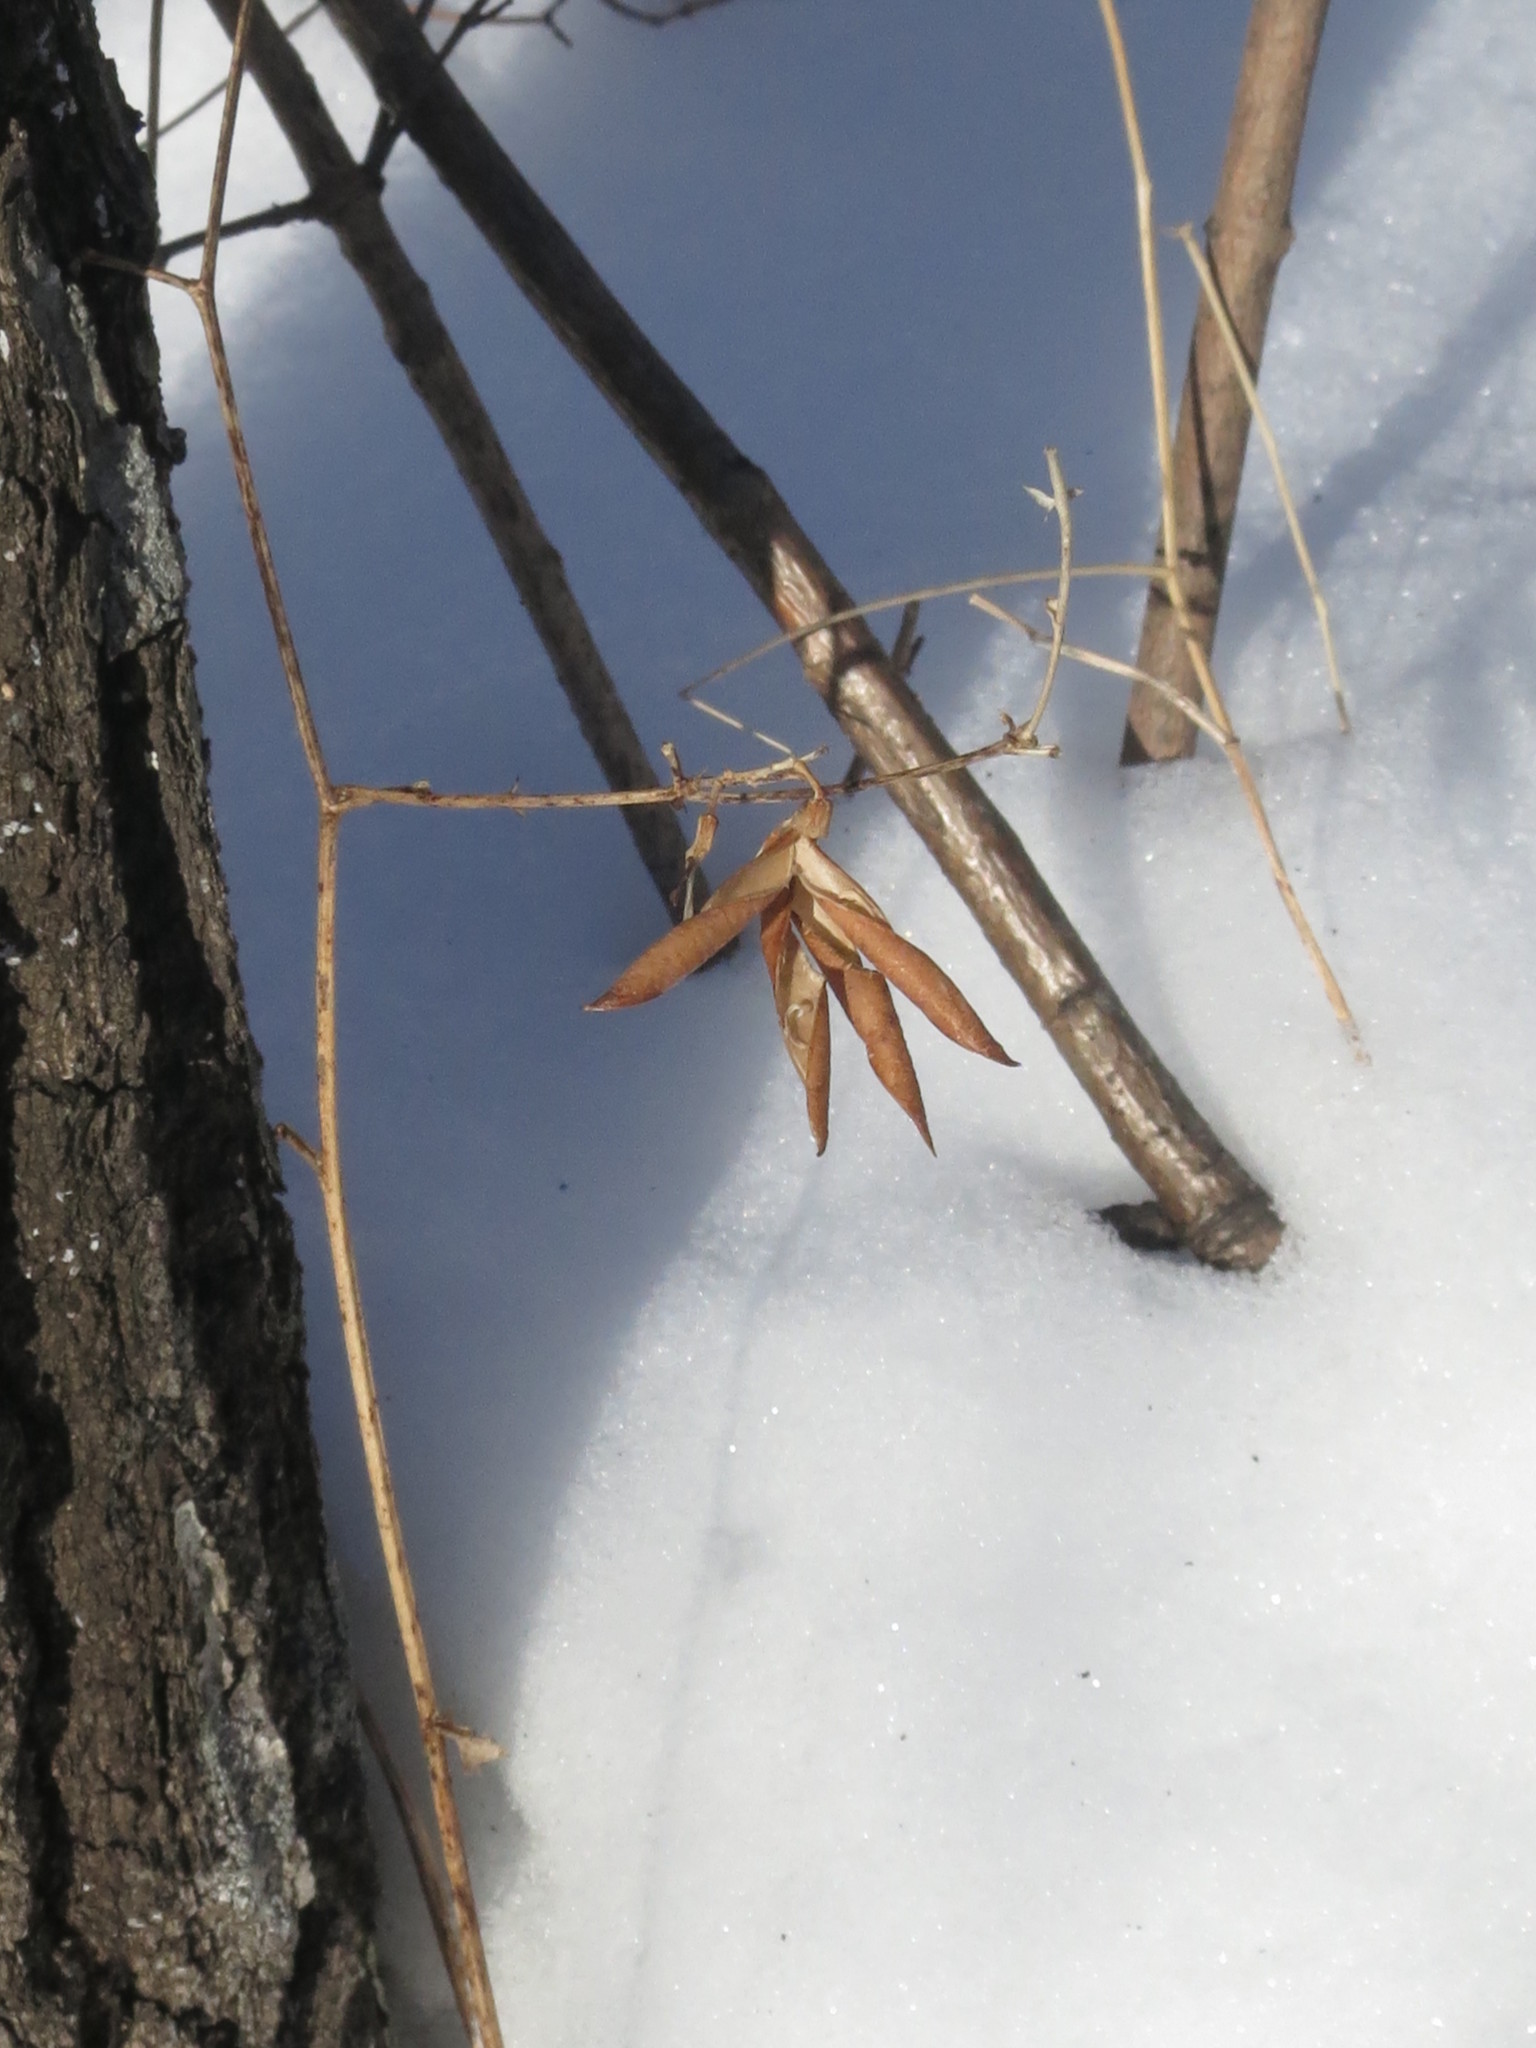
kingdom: Plantae
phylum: Tracheophyta
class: Magnoliopsida
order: Fabales
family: Fabaceae
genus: Vicia
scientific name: Vicia unijuga
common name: Two-leaf vetch
